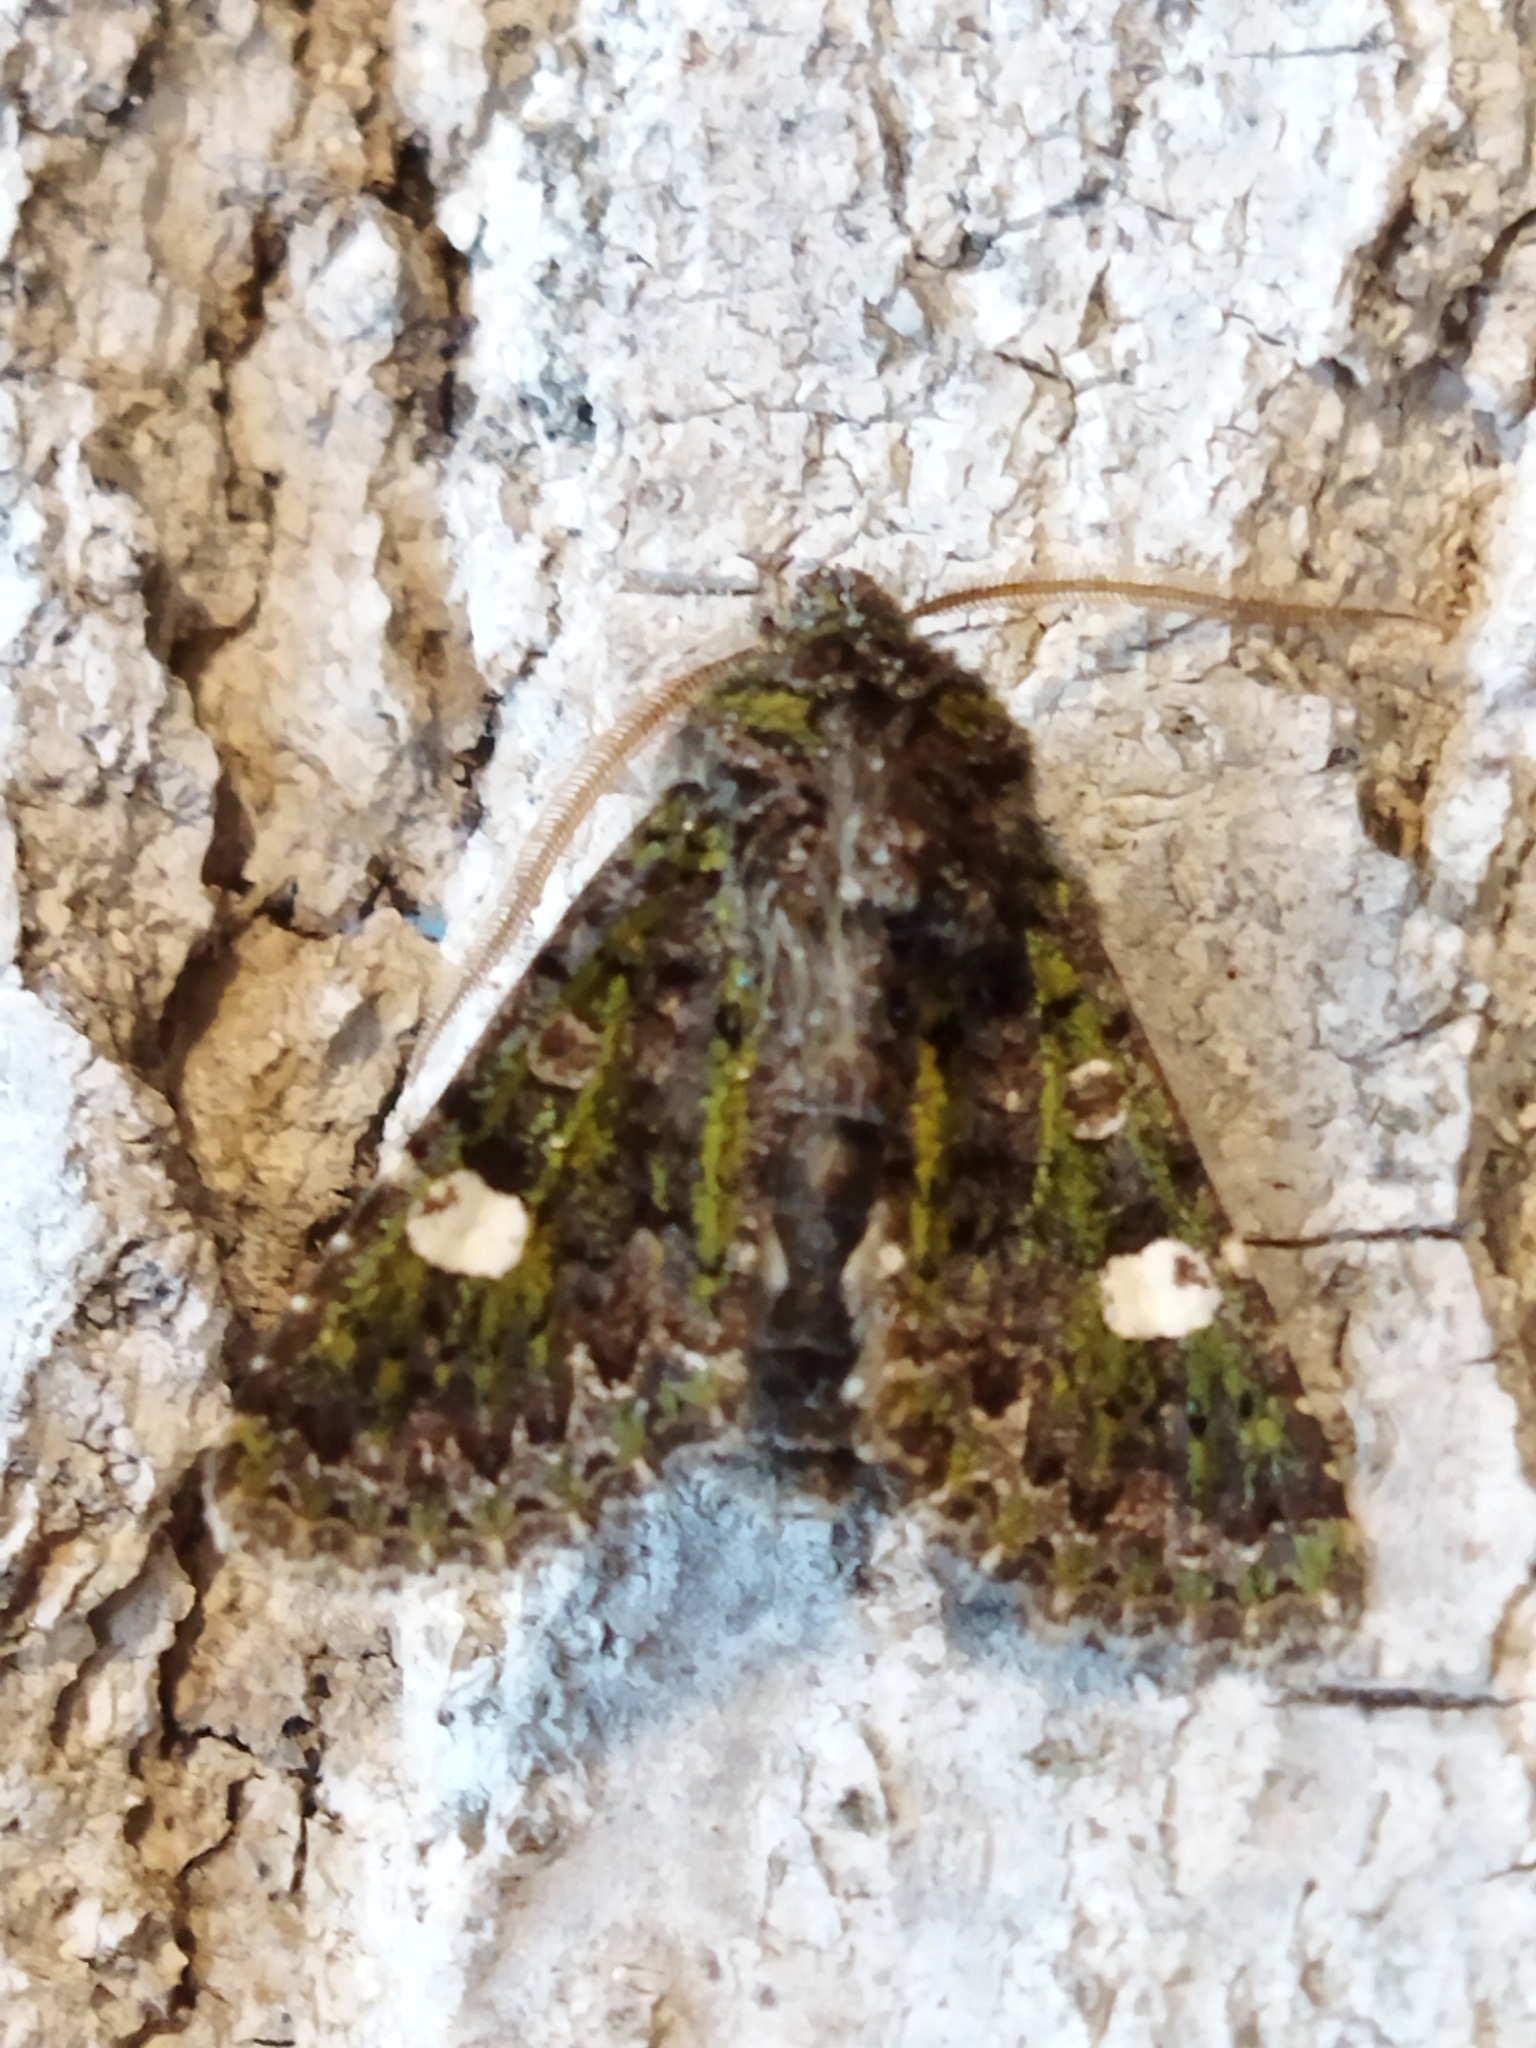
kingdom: Animalia
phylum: Arthropoda
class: Insecta
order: Lepidoptera
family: Noctuidae
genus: Valeria
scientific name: Valeria oleagina
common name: Green-brindled dot
